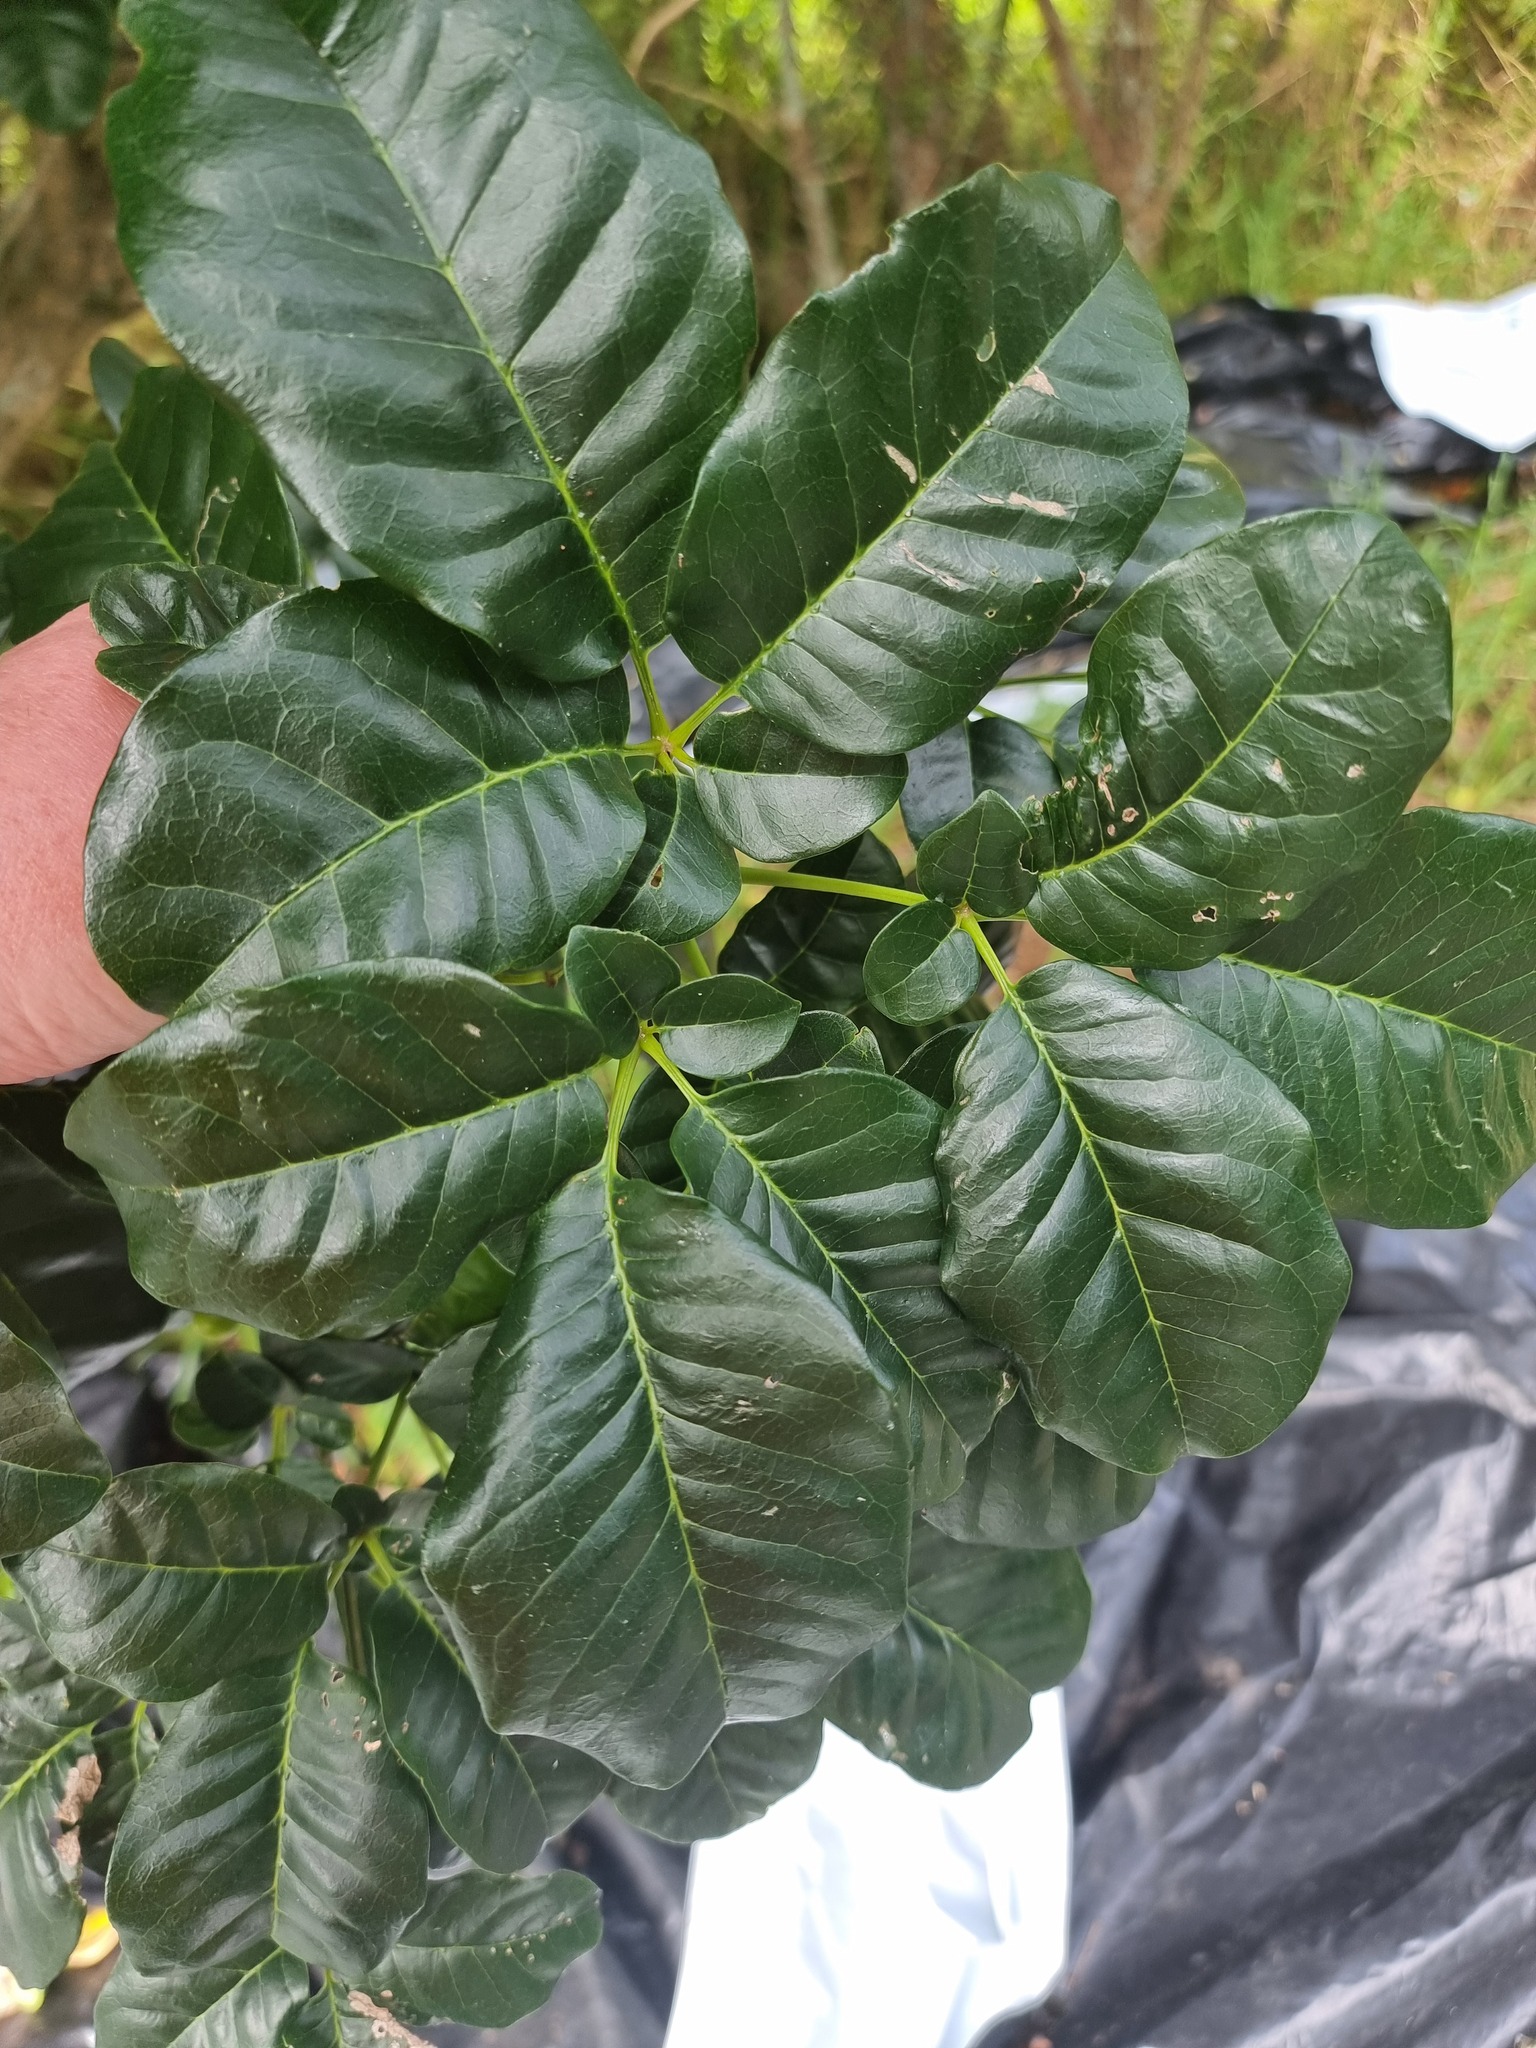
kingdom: Plantae
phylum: Tracheophyta
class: Magnoliopsida
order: Lamiales
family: Lamiaceae
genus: Vitex
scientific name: Vitex lucens
